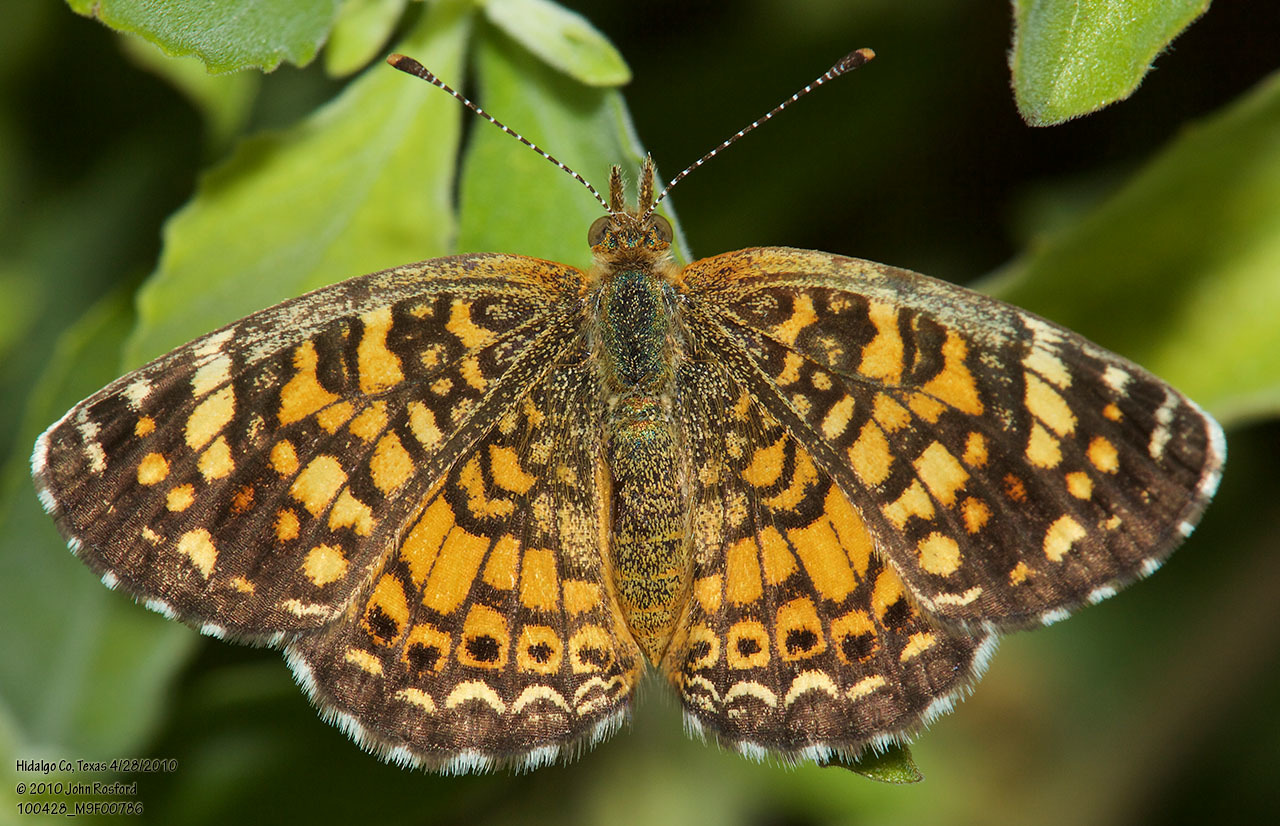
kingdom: Animalia
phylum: Arthropoda
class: Insecta
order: Lepidoptera
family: Nymphalidae
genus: Phyciodes
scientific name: Phyciodes vesta
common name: Vesta crescent
